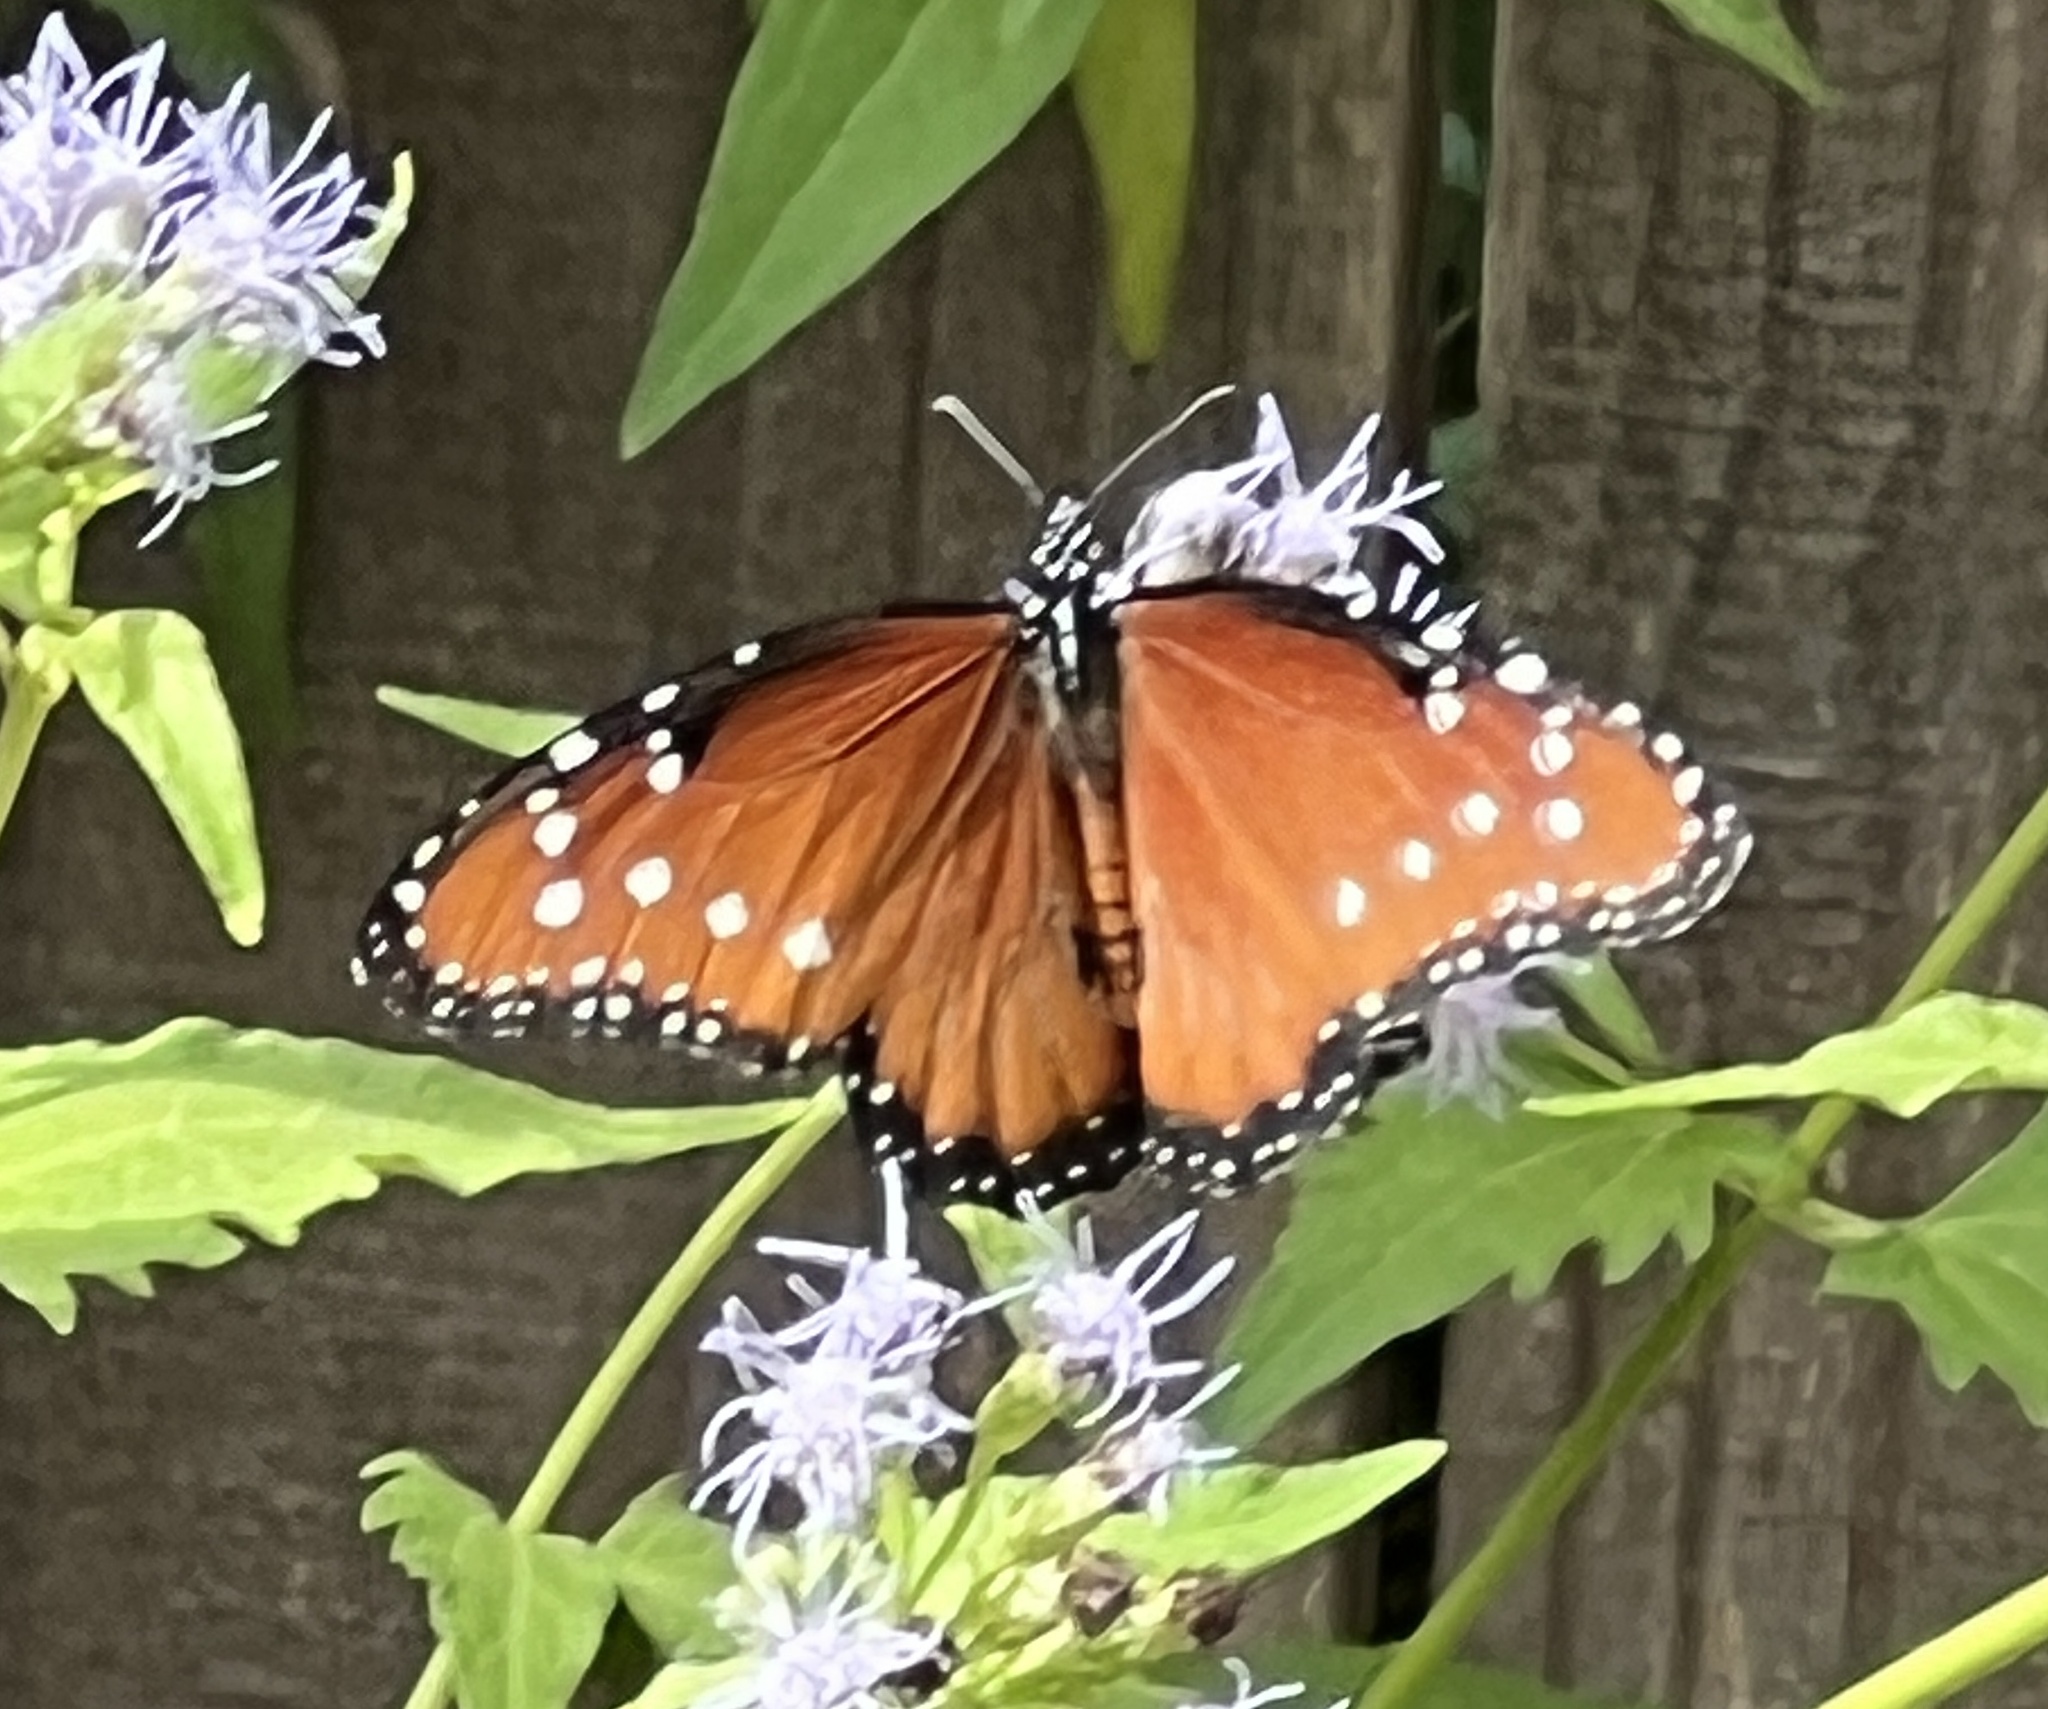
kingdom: Animalia
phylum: Arthropoda
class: Insecta
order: Lepidoptera
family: Nymphalidae
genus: Danaus
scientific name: Danaus gilippus
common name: Queen
